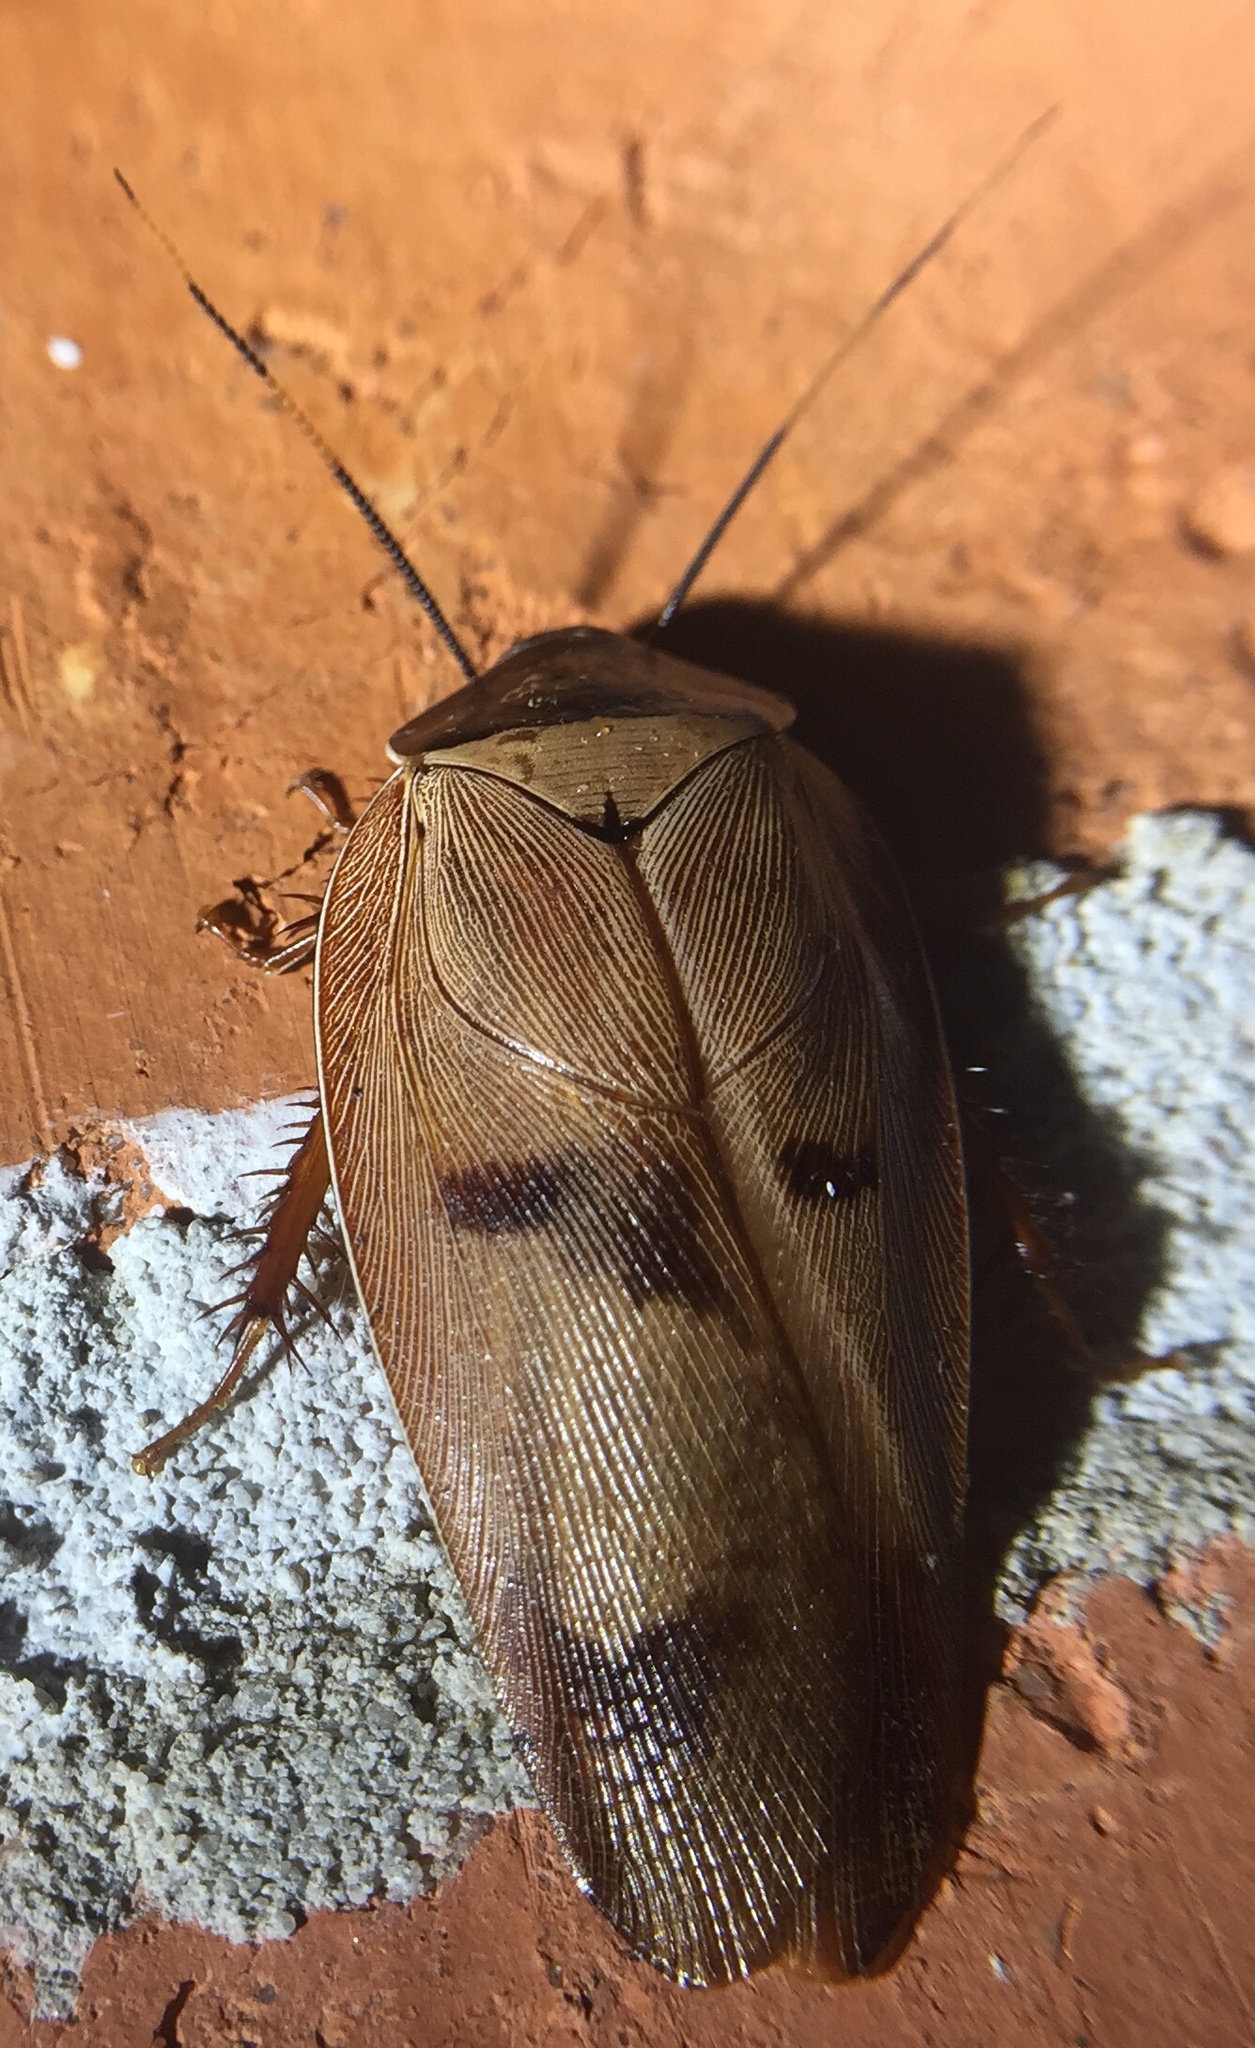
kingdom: Animalia
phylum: Arthropoda
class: Insecta
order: Blattodea
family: Blaberidae
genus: Gyna
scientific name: Gyna capucina
